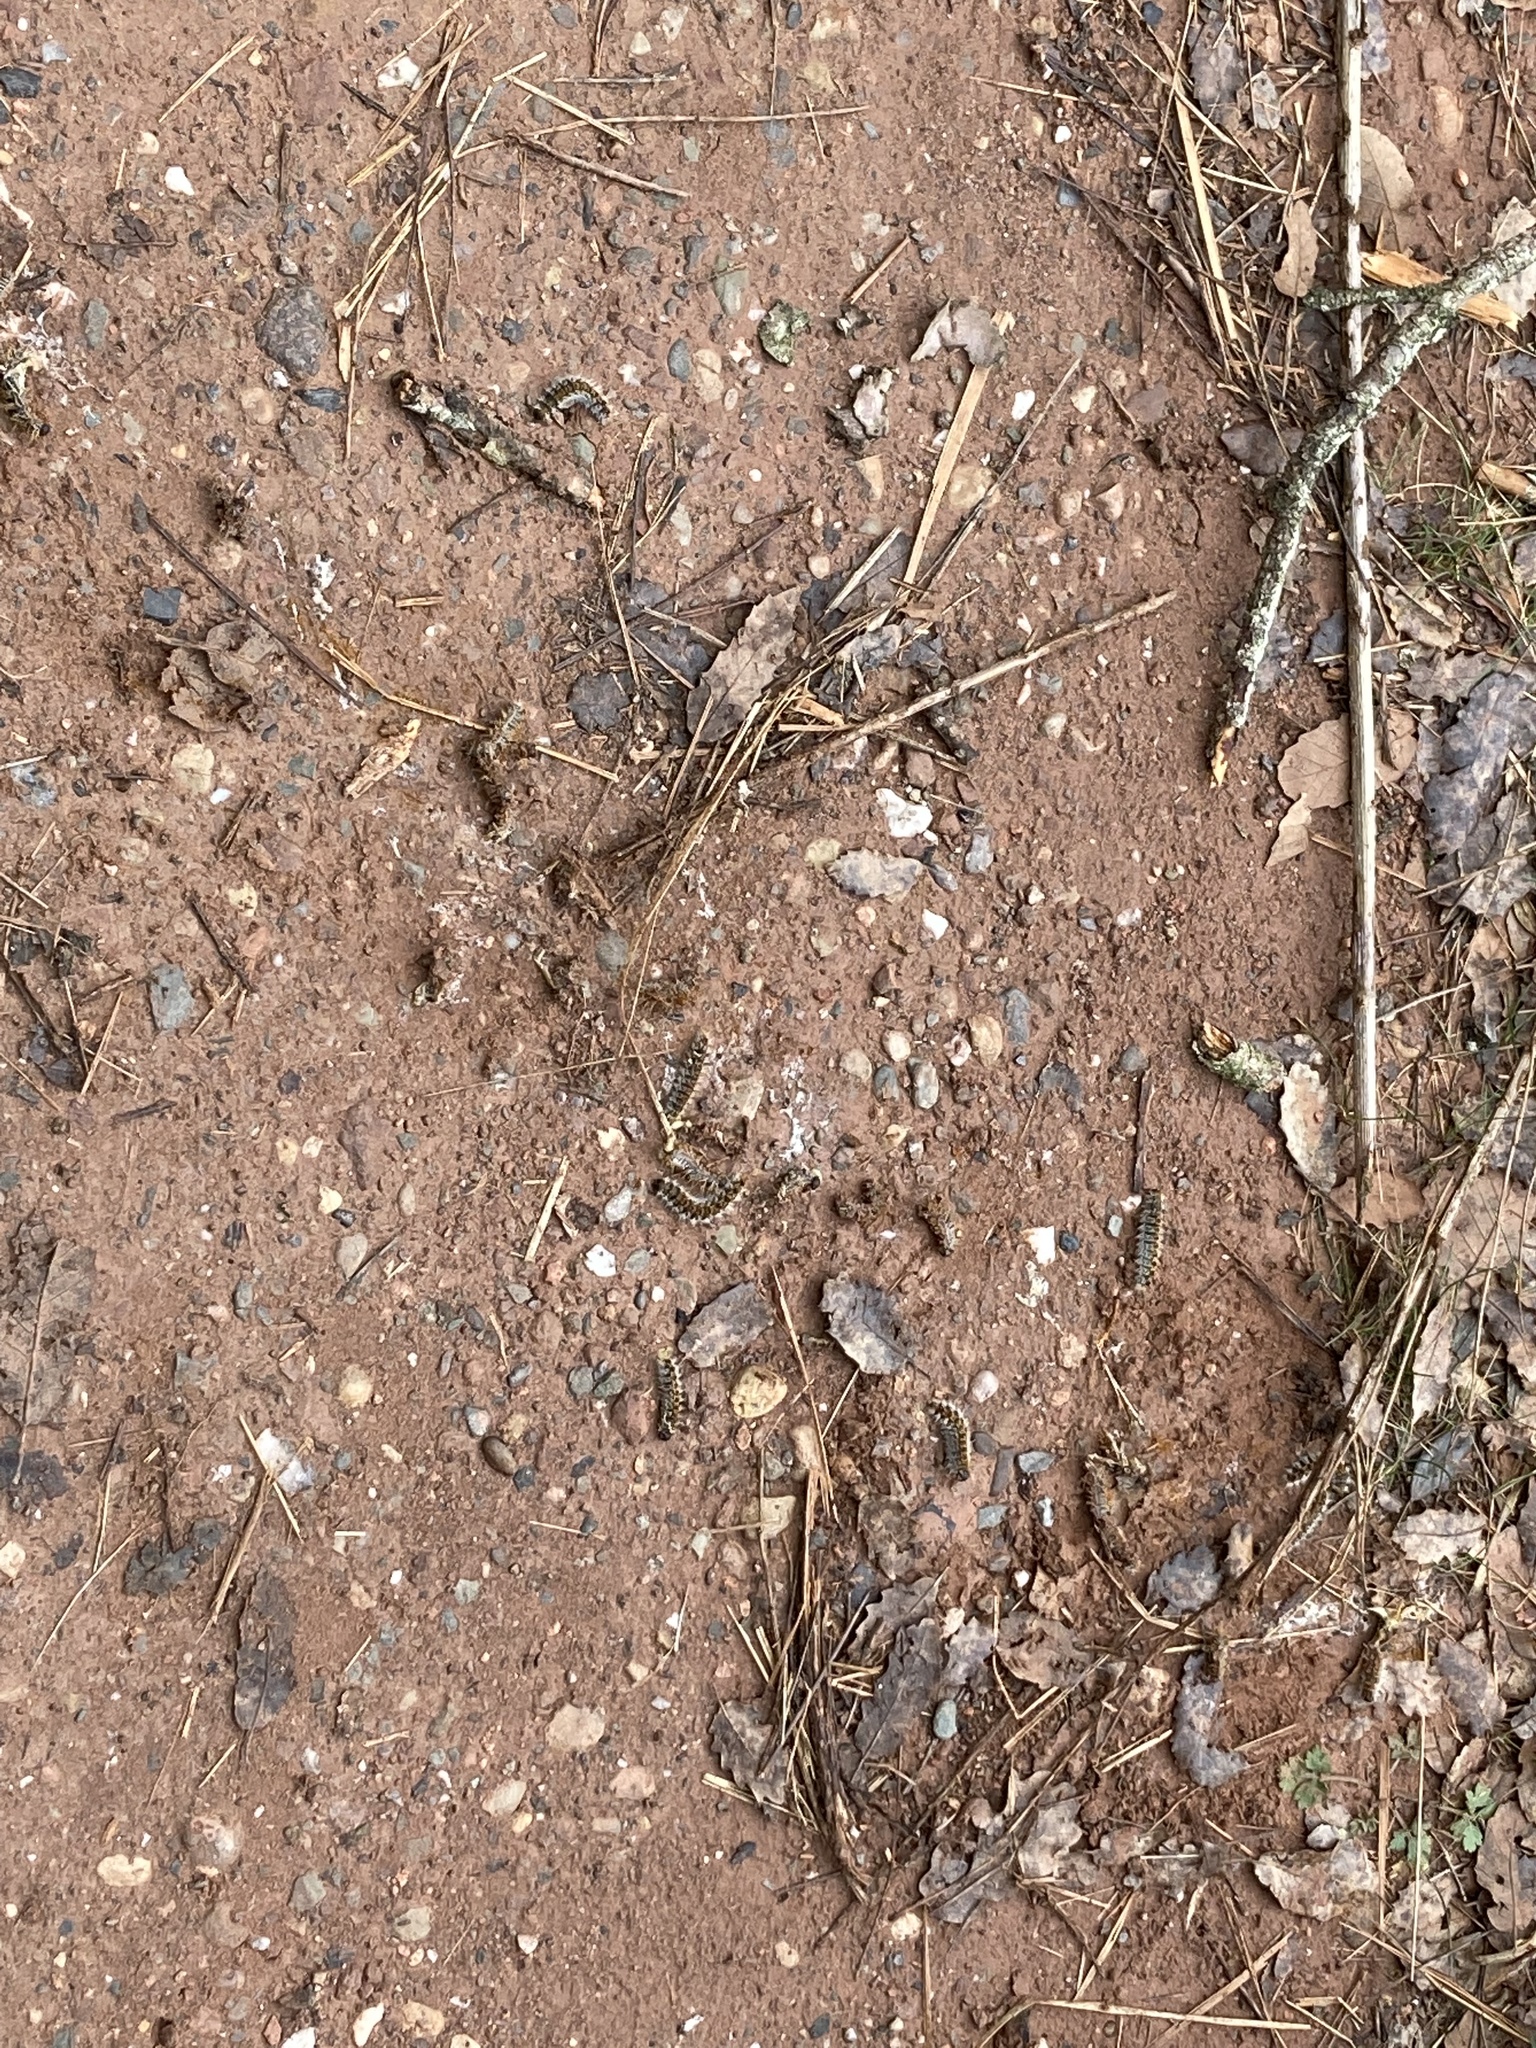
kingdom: Animalia
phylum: Arthropoda
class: Insecta
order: Lepidoptera
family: Notodontidae
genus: Thaumetopoea
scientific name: Thaumetopoea pityocampa
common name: Pine processionary
